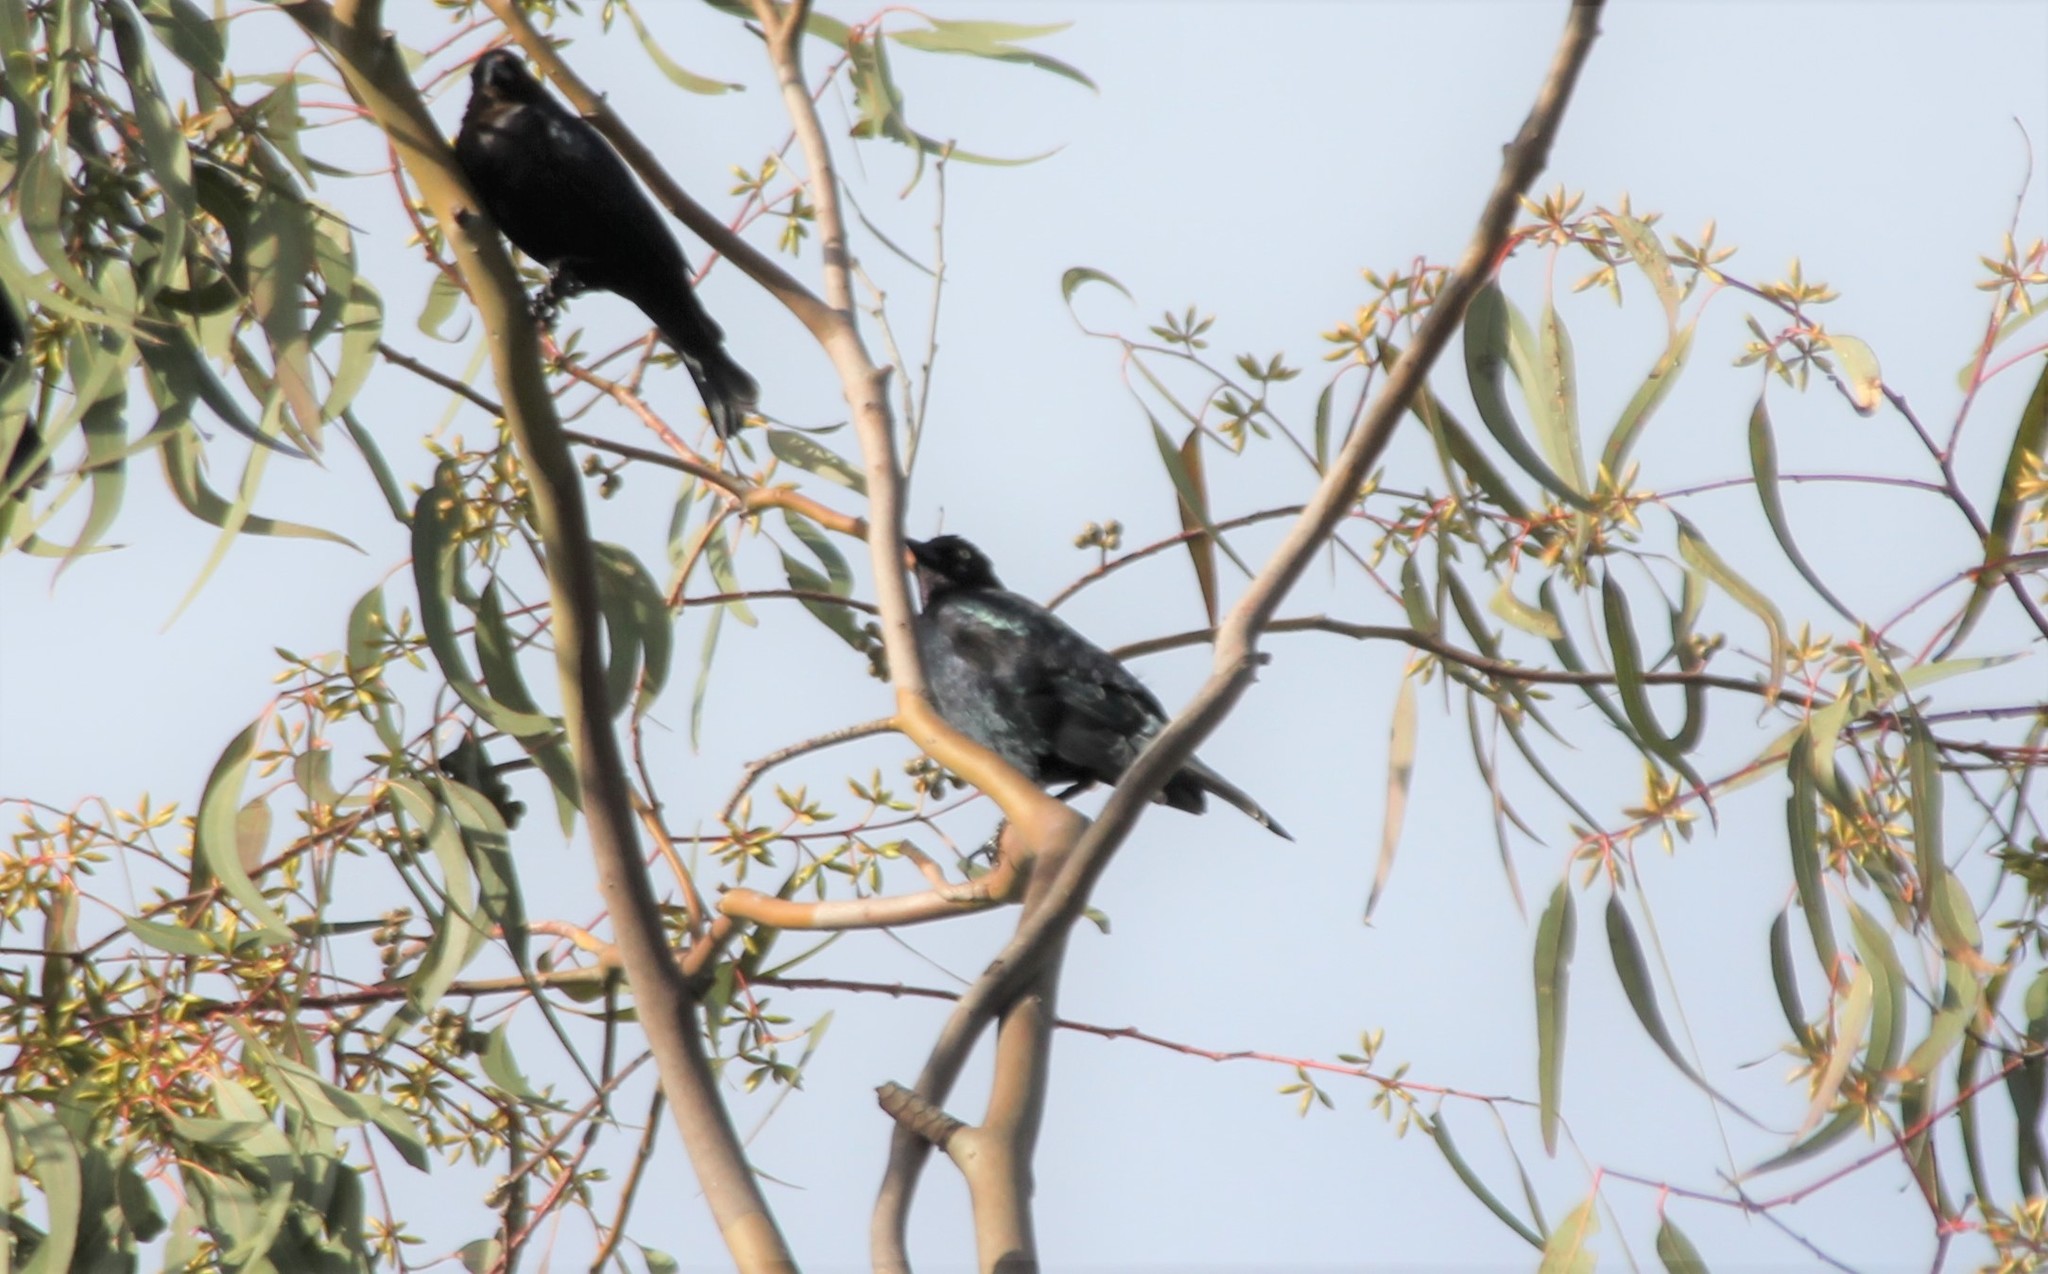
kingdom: Animalia
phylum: Chordata
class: Aves
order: Passeriformes
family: Icteridae
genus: Euphagus
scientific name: Euphagus cyanocephalus
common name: Brewer's blackbird
